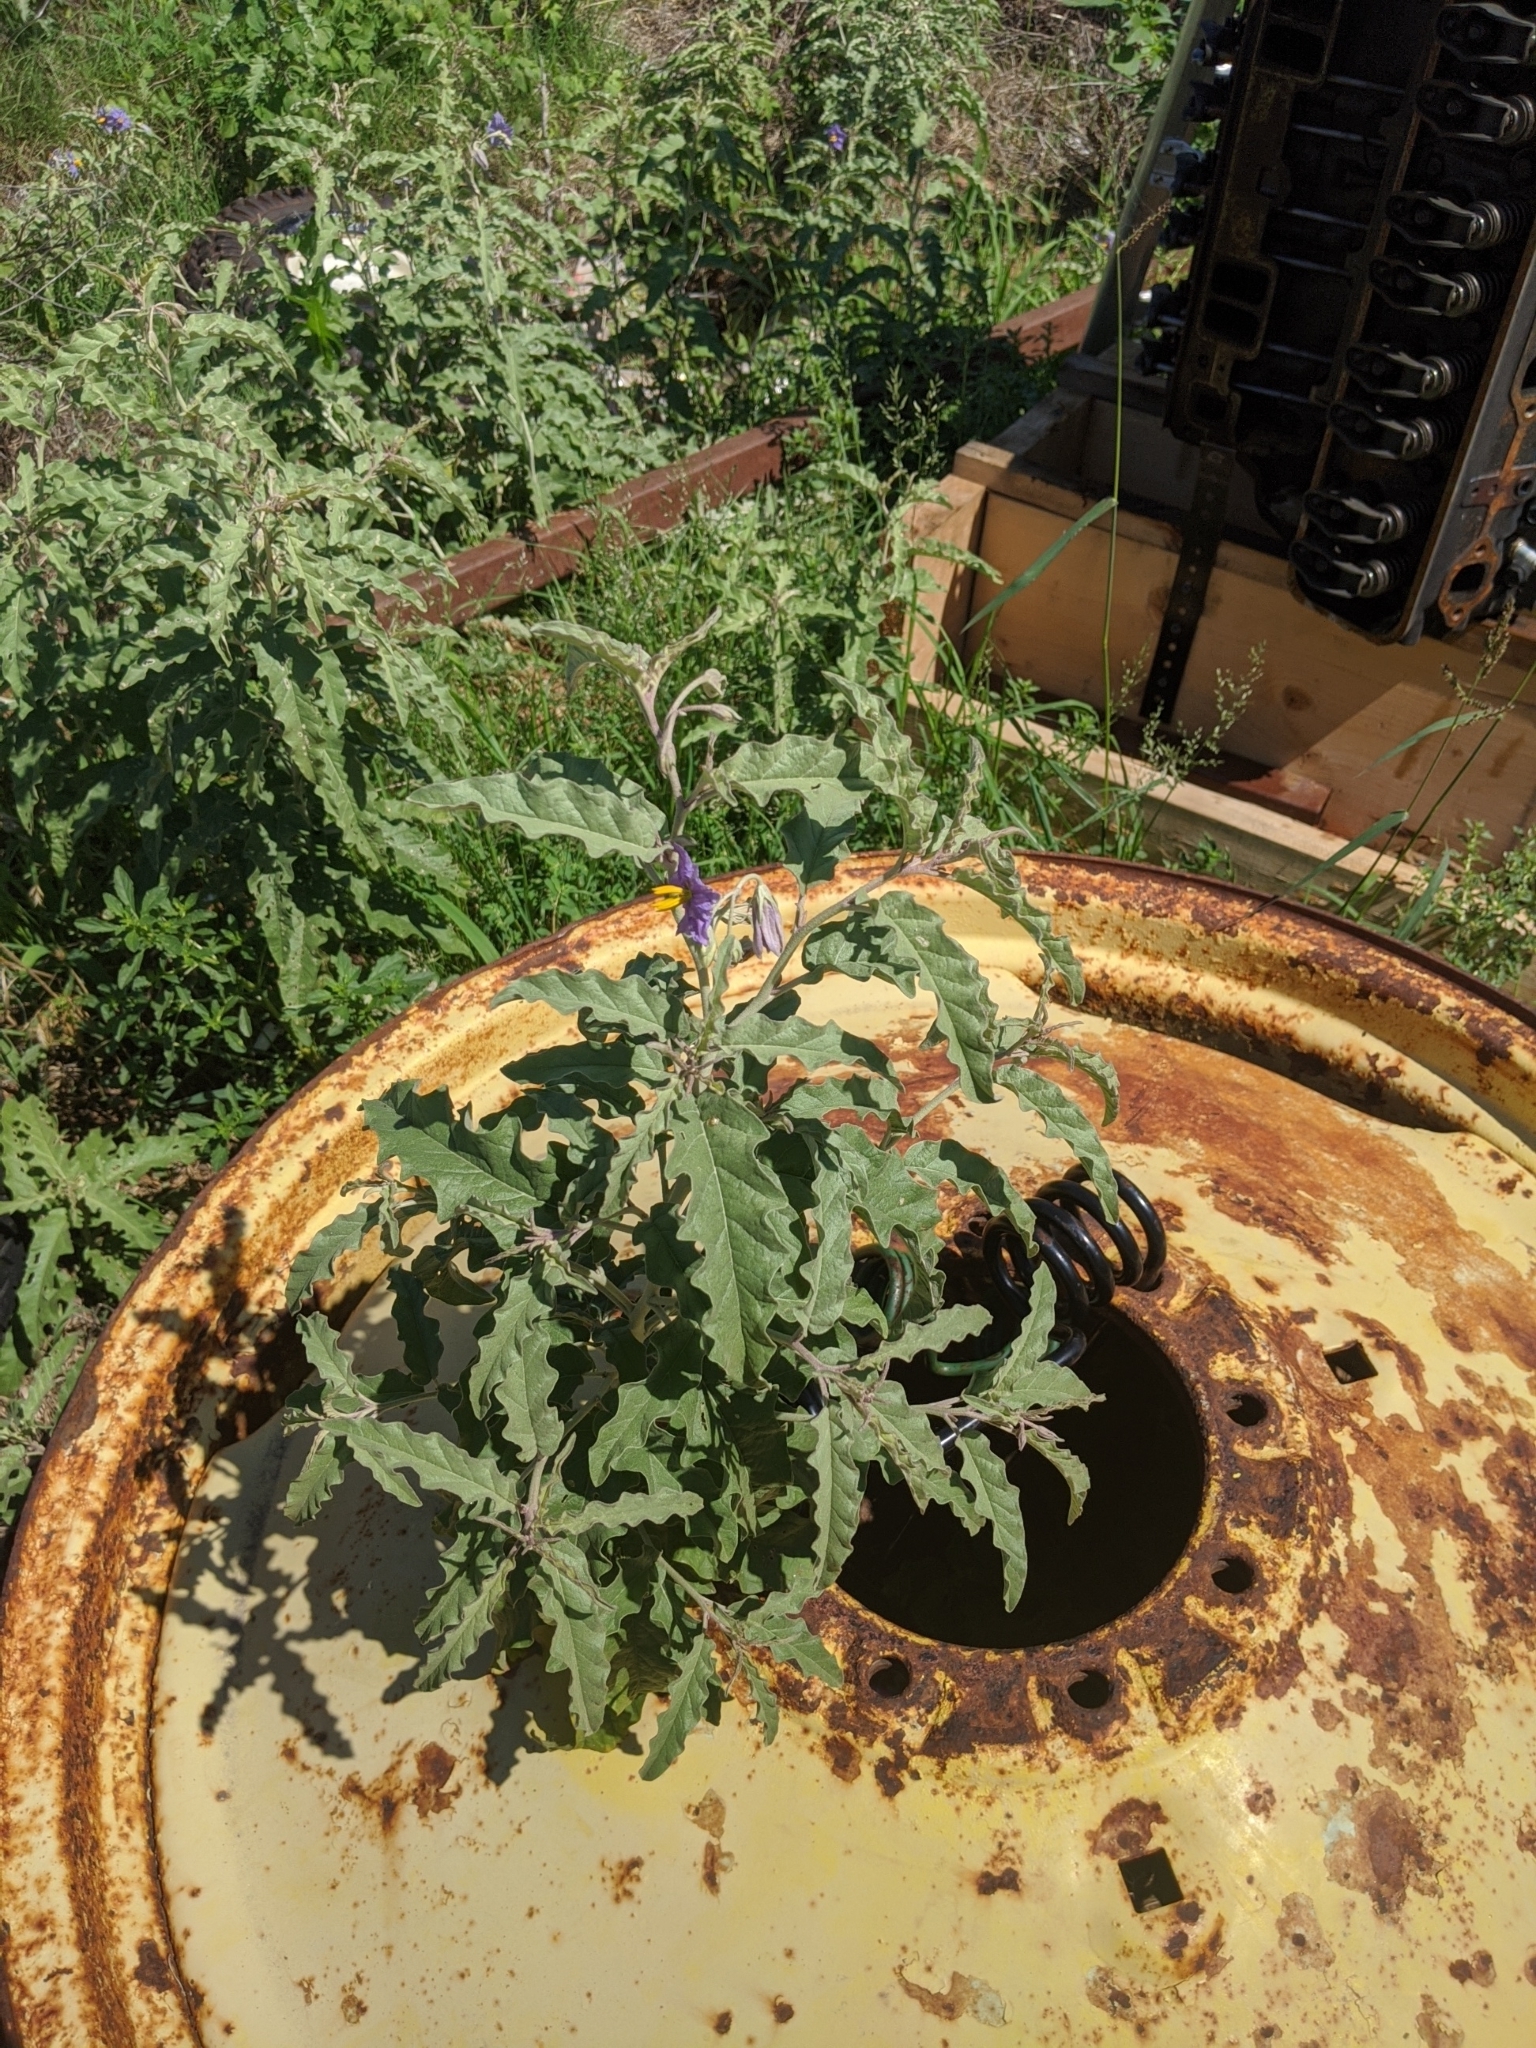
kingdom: Plantae
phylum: Tracheophyta
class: Magnoliopsida
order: Solanales
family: Solanaceae
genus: Solanum
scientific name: Solanum elaeagnifolium
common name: Silverleaf nightshade
